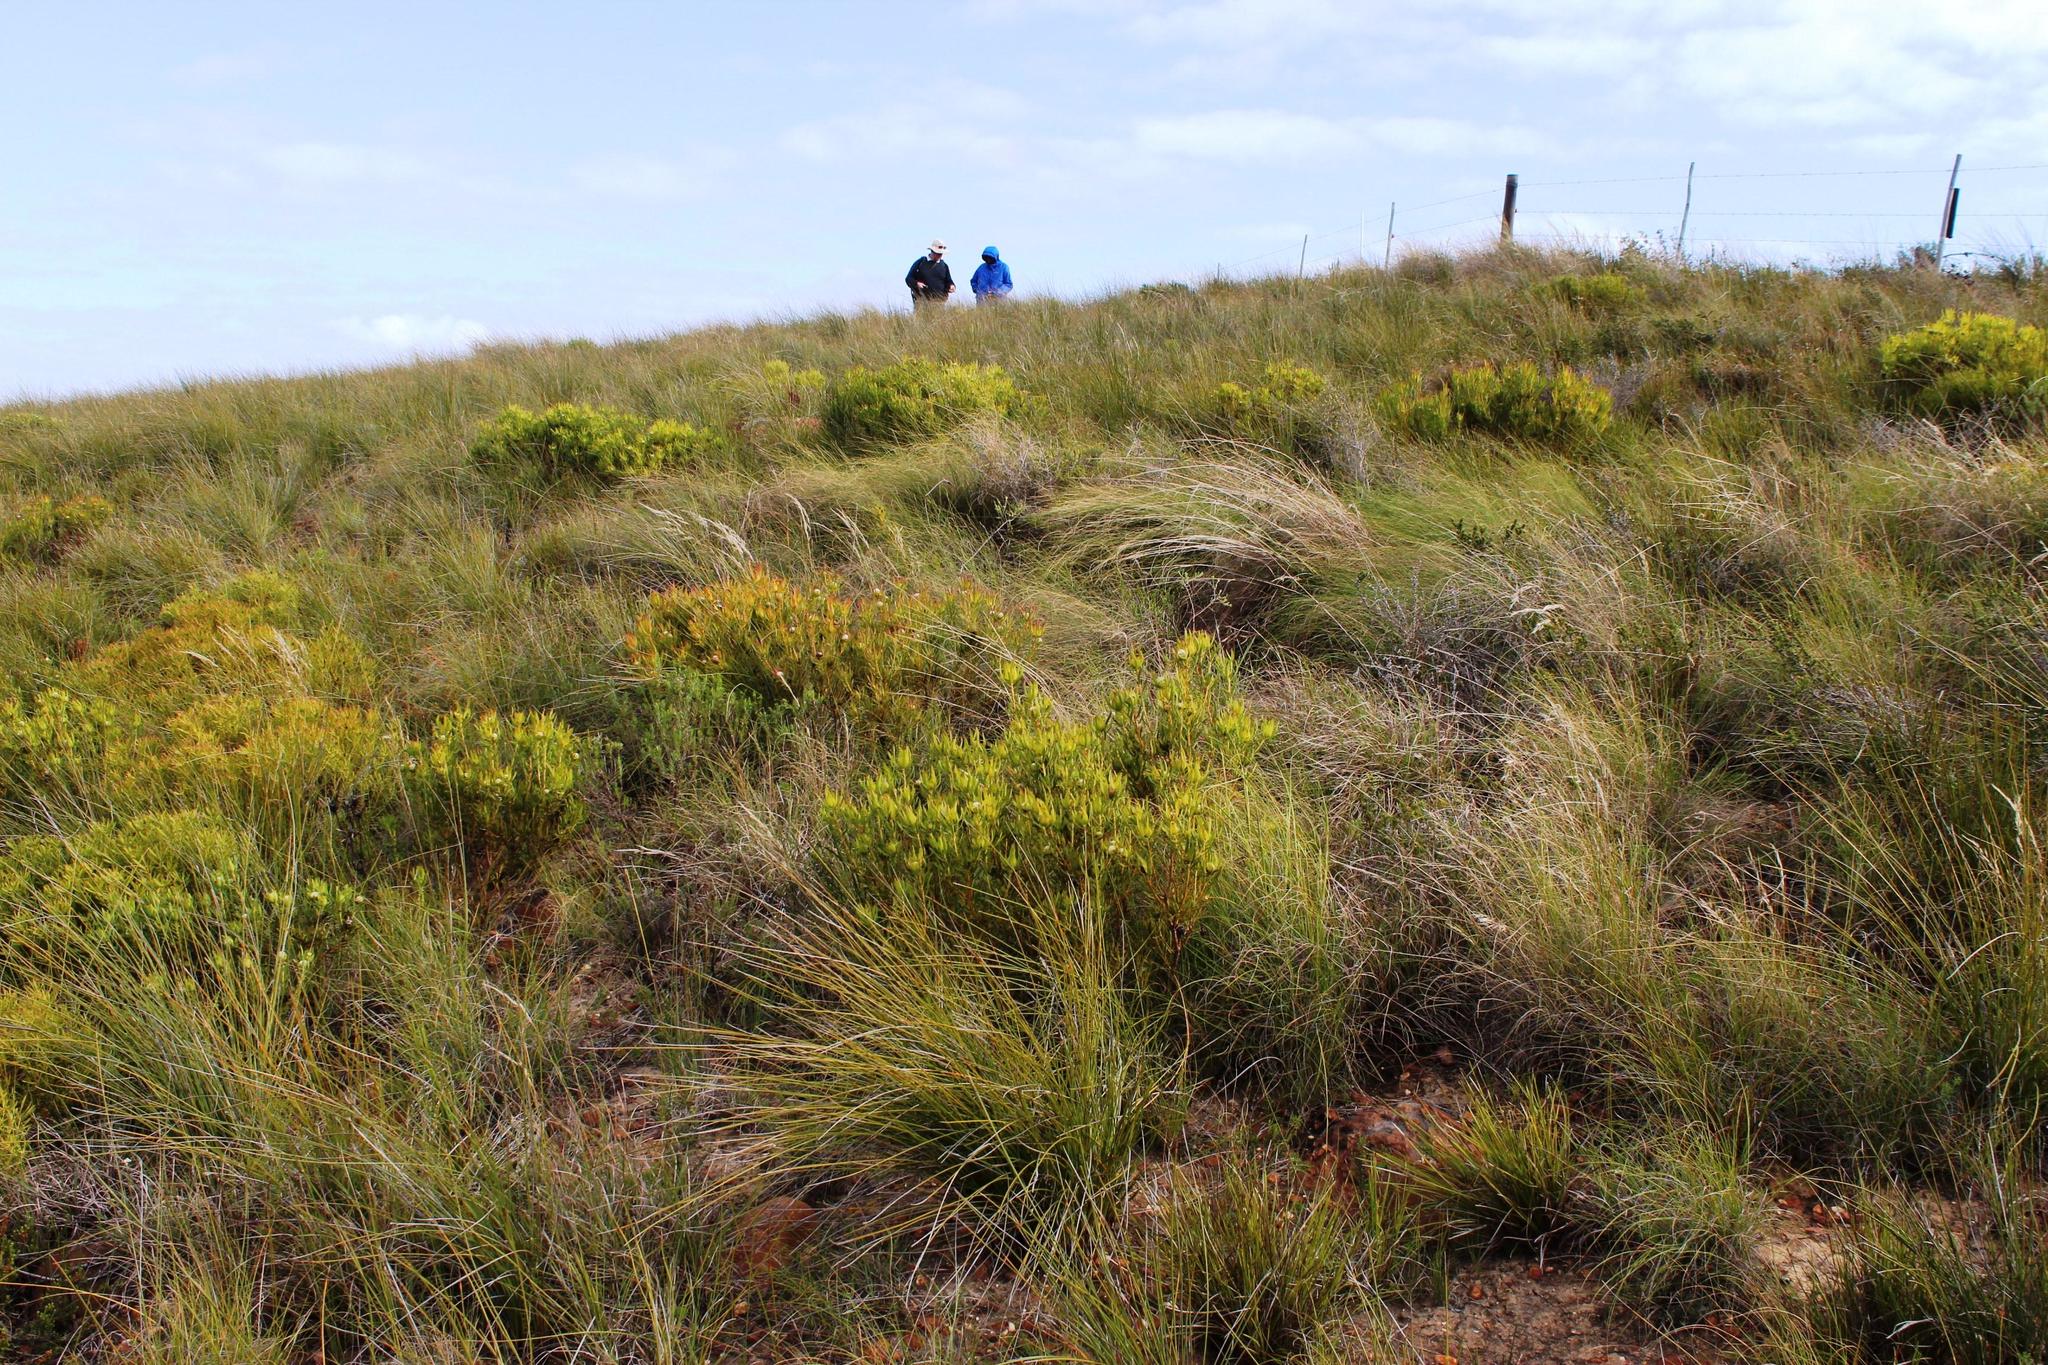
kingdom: Plantae
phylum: Tracheophyta
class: Magnoliopsida
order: Proteales
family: Proteaceae
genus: Leucadendron
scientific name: Leucadendron salignum
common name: Common sunshine conebush
